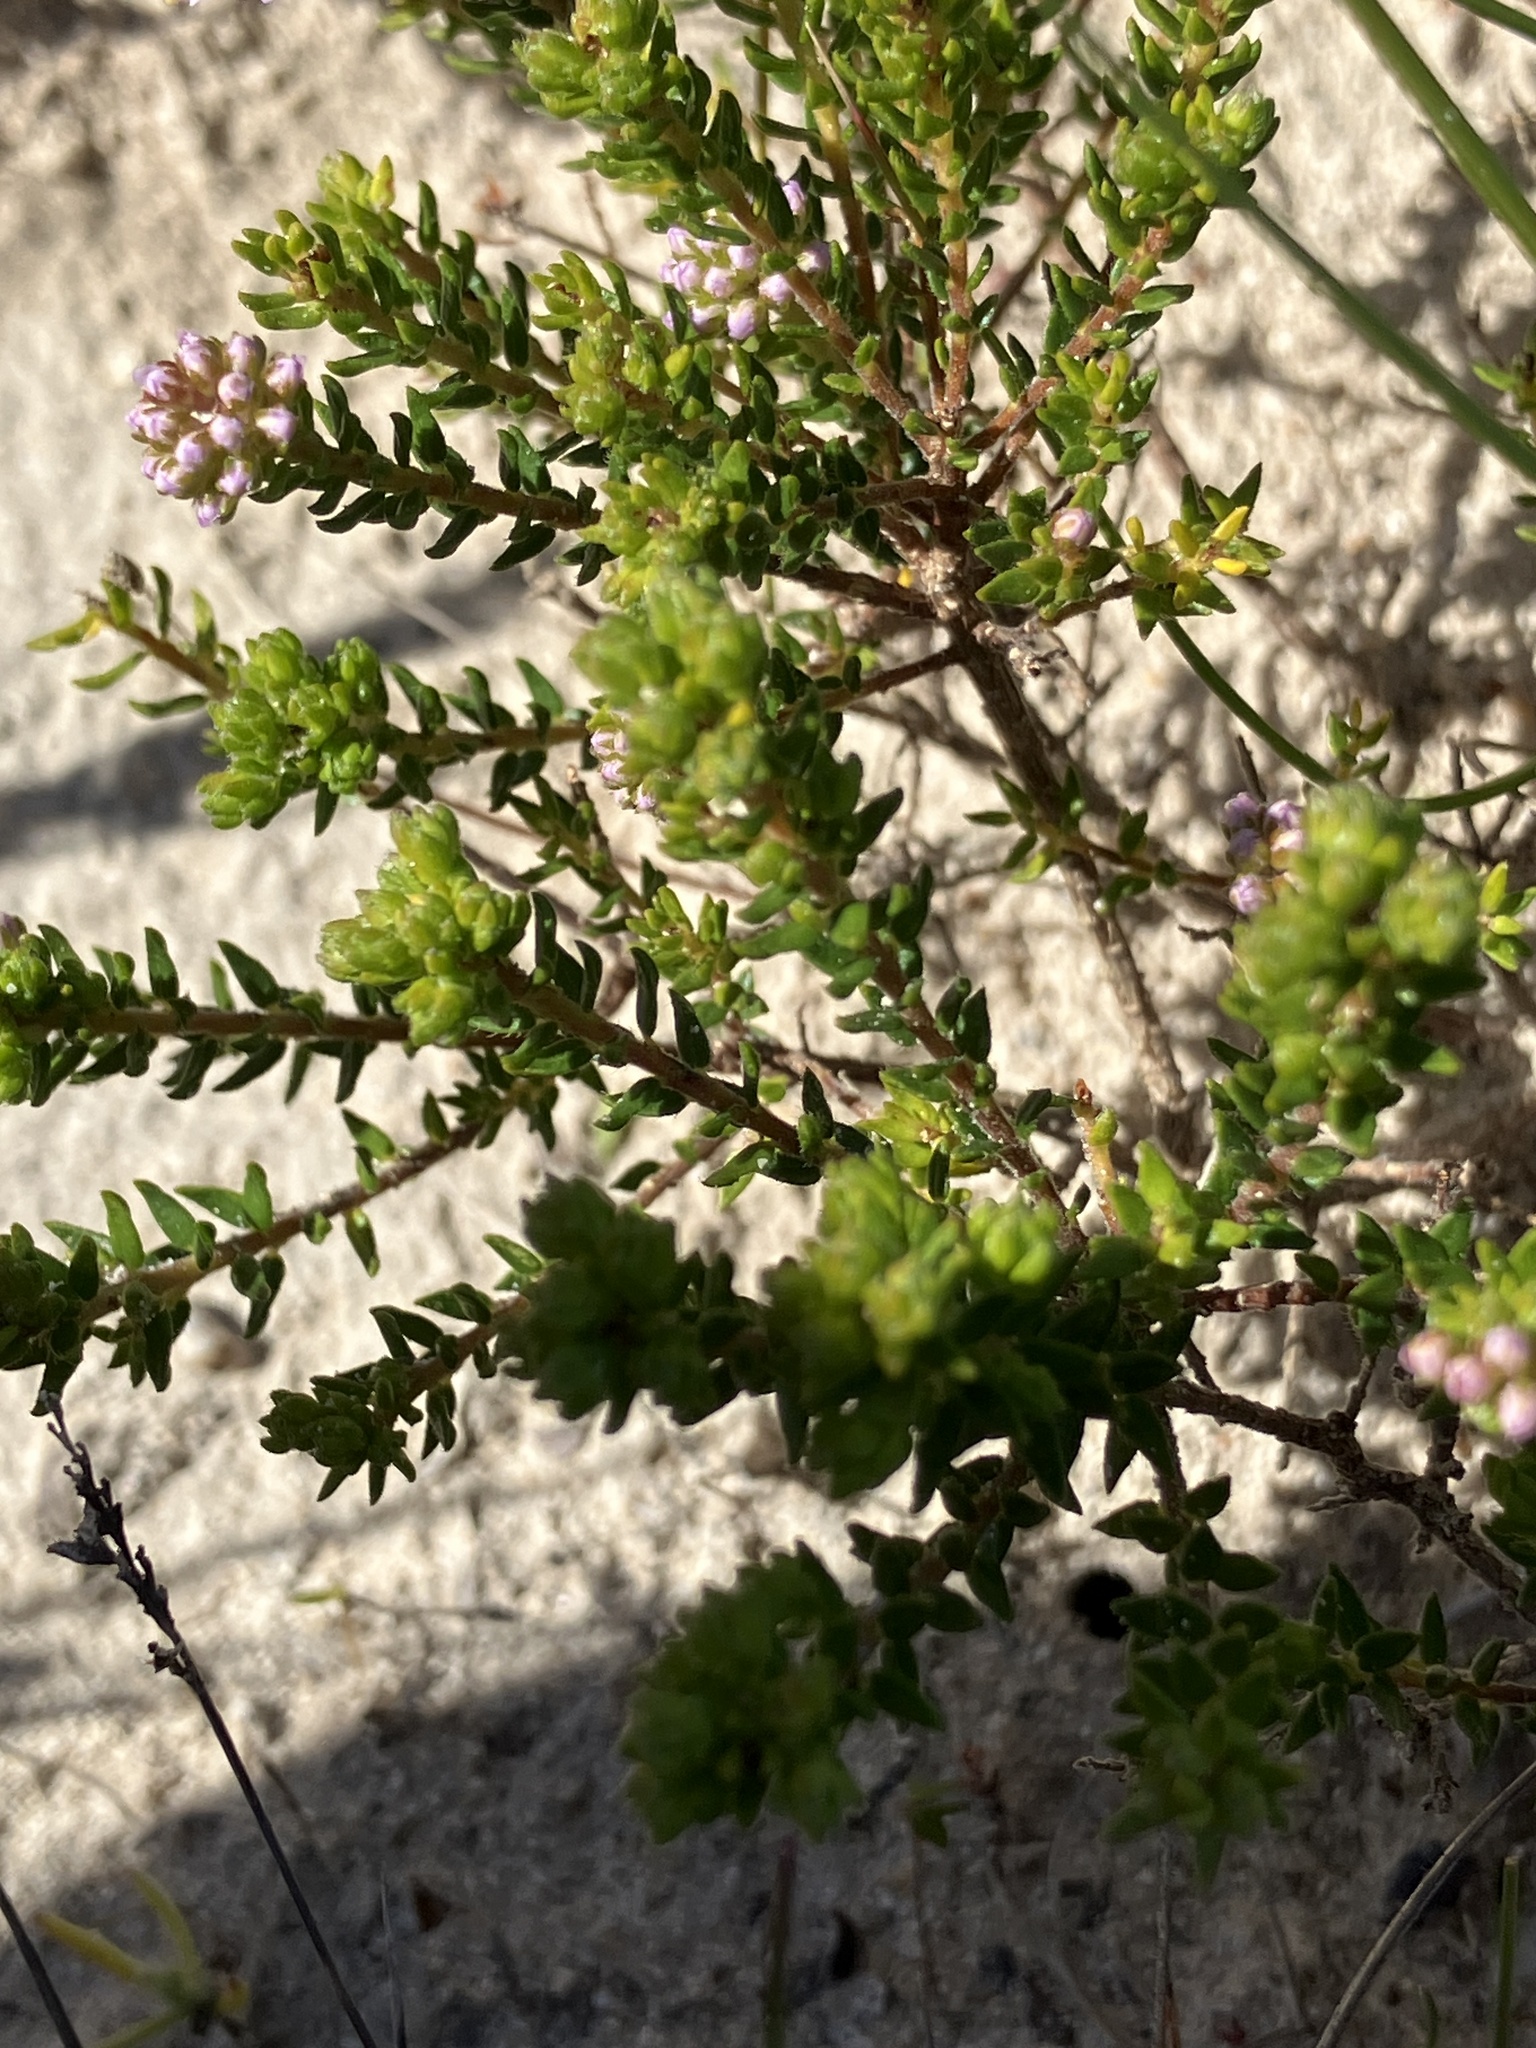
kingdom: Plantae
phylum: Tracheophyta
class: Magnoliopsida
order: Sapindales
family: Rutaceae
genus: Agathosma
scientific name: Agathosma serpyllacea
